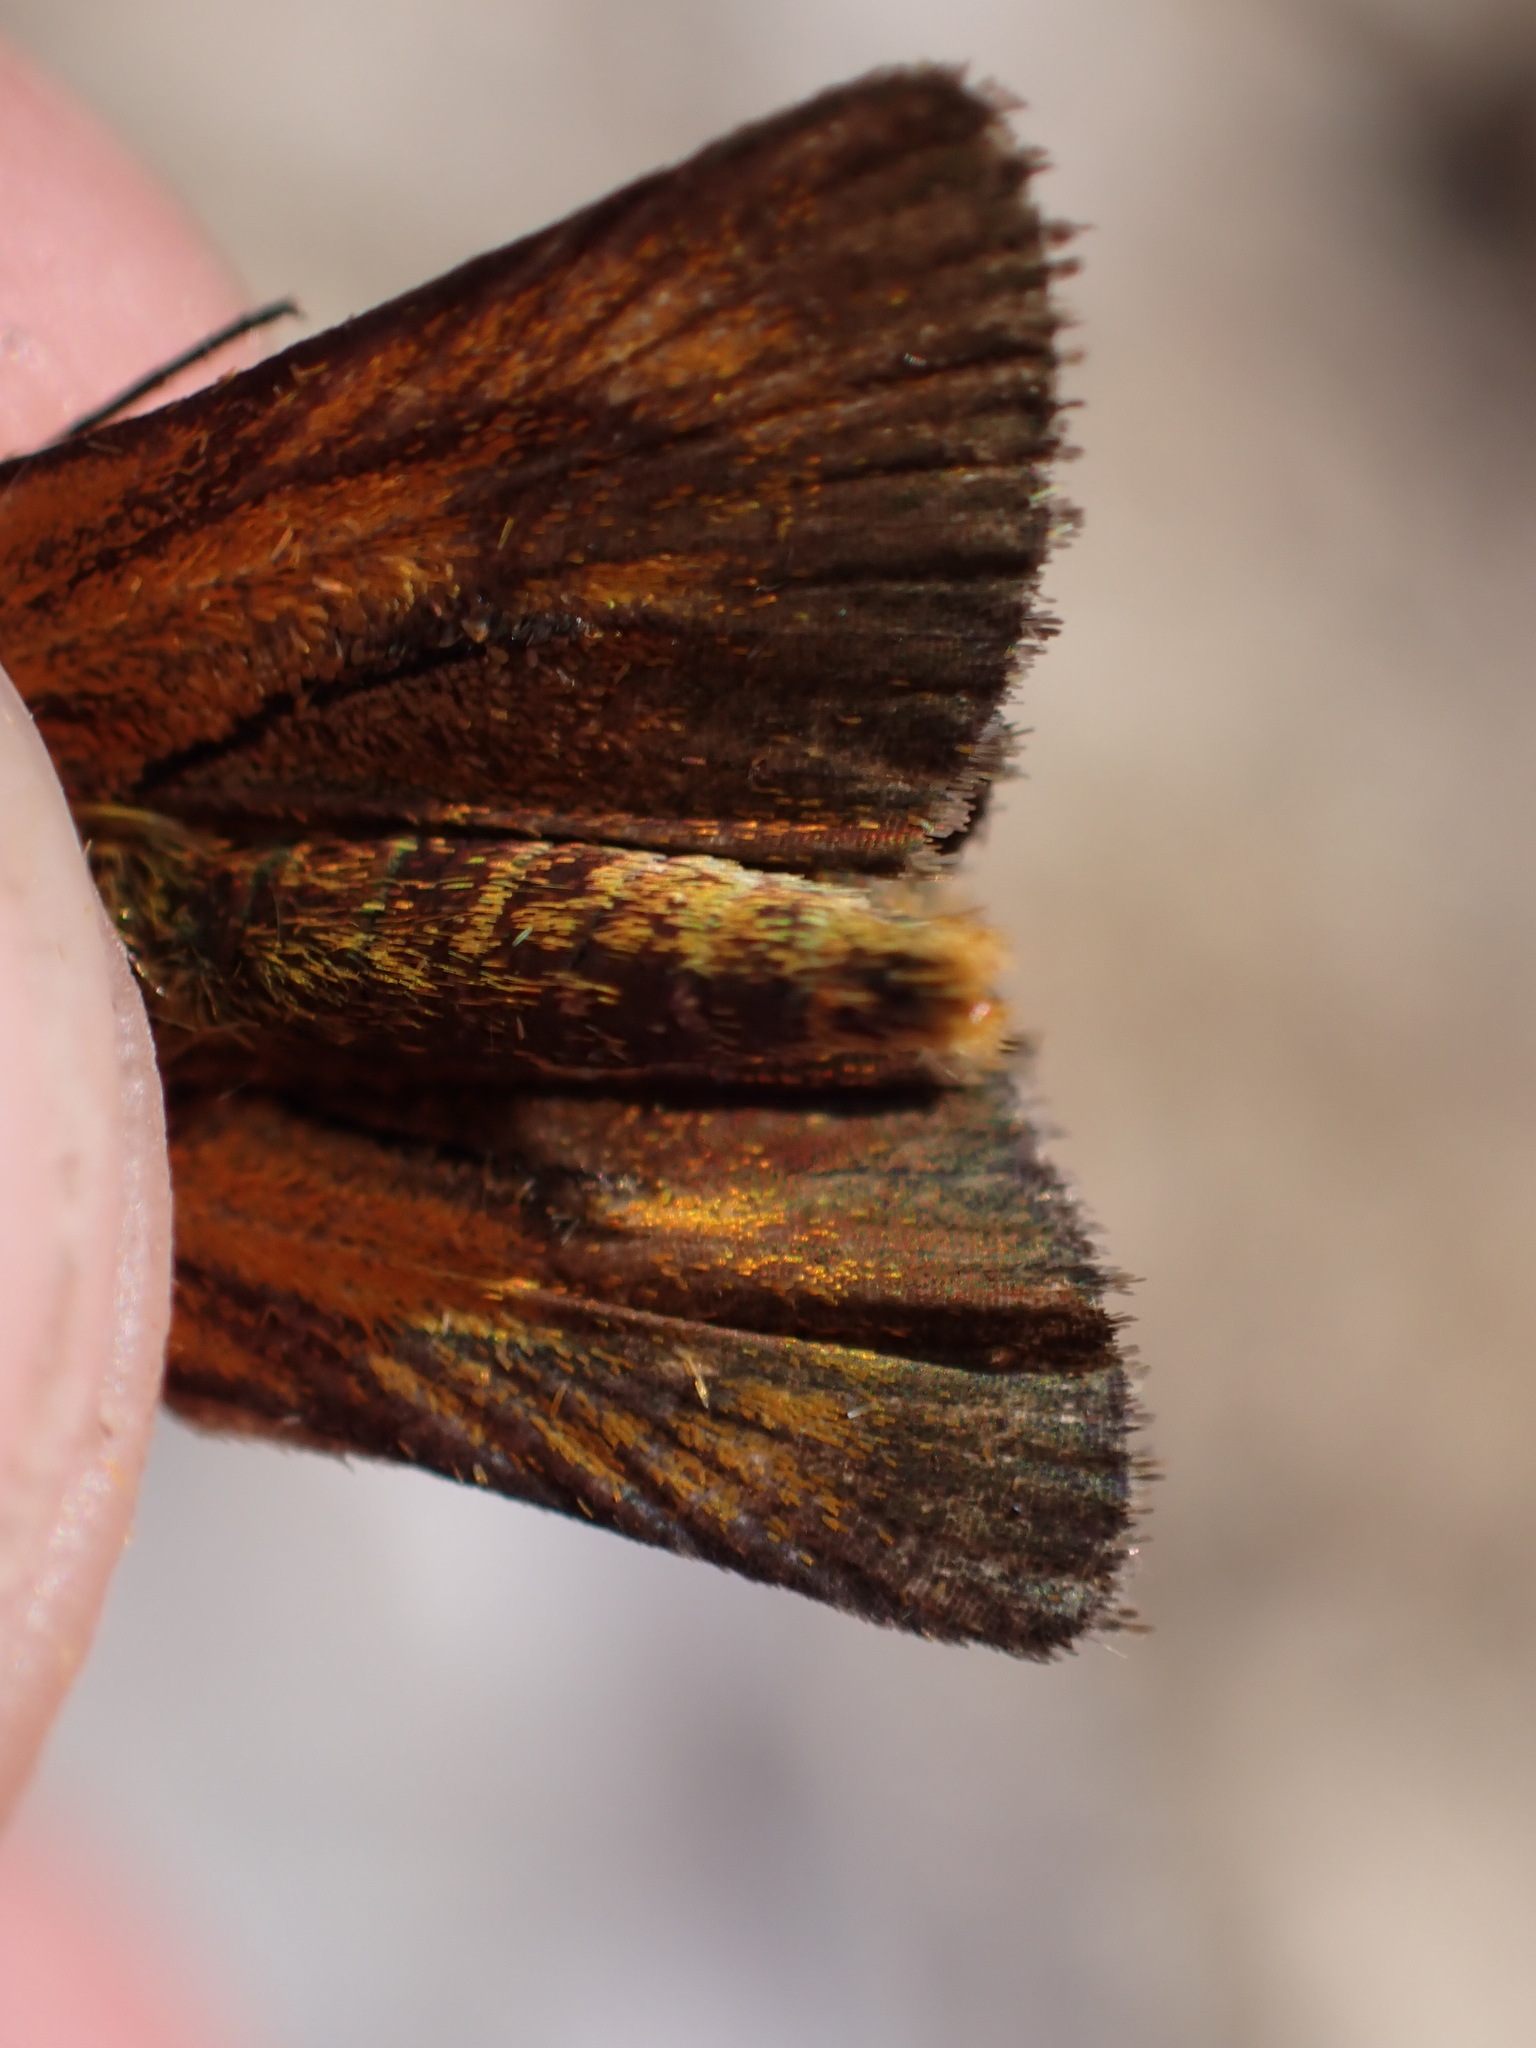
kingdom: Animalia
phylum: Arthropoda
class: Insecta
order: Lepidoptera
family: Hesperiidae
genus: Thymelicus
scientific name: Thymelicus acteon
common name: Lulworth skipper
